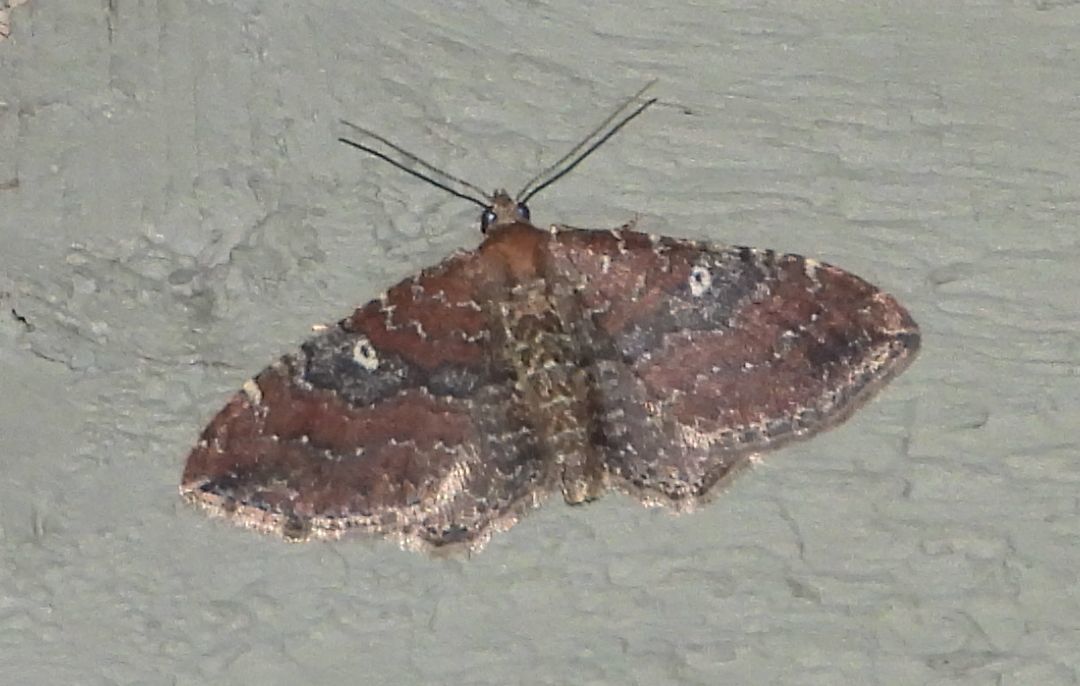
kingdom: Animalia
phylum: Arthropoda
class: Insecta
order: Lepidoptera
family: Geometridae
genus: Orthonama
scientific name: Orthonama obstipata
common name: The gem
